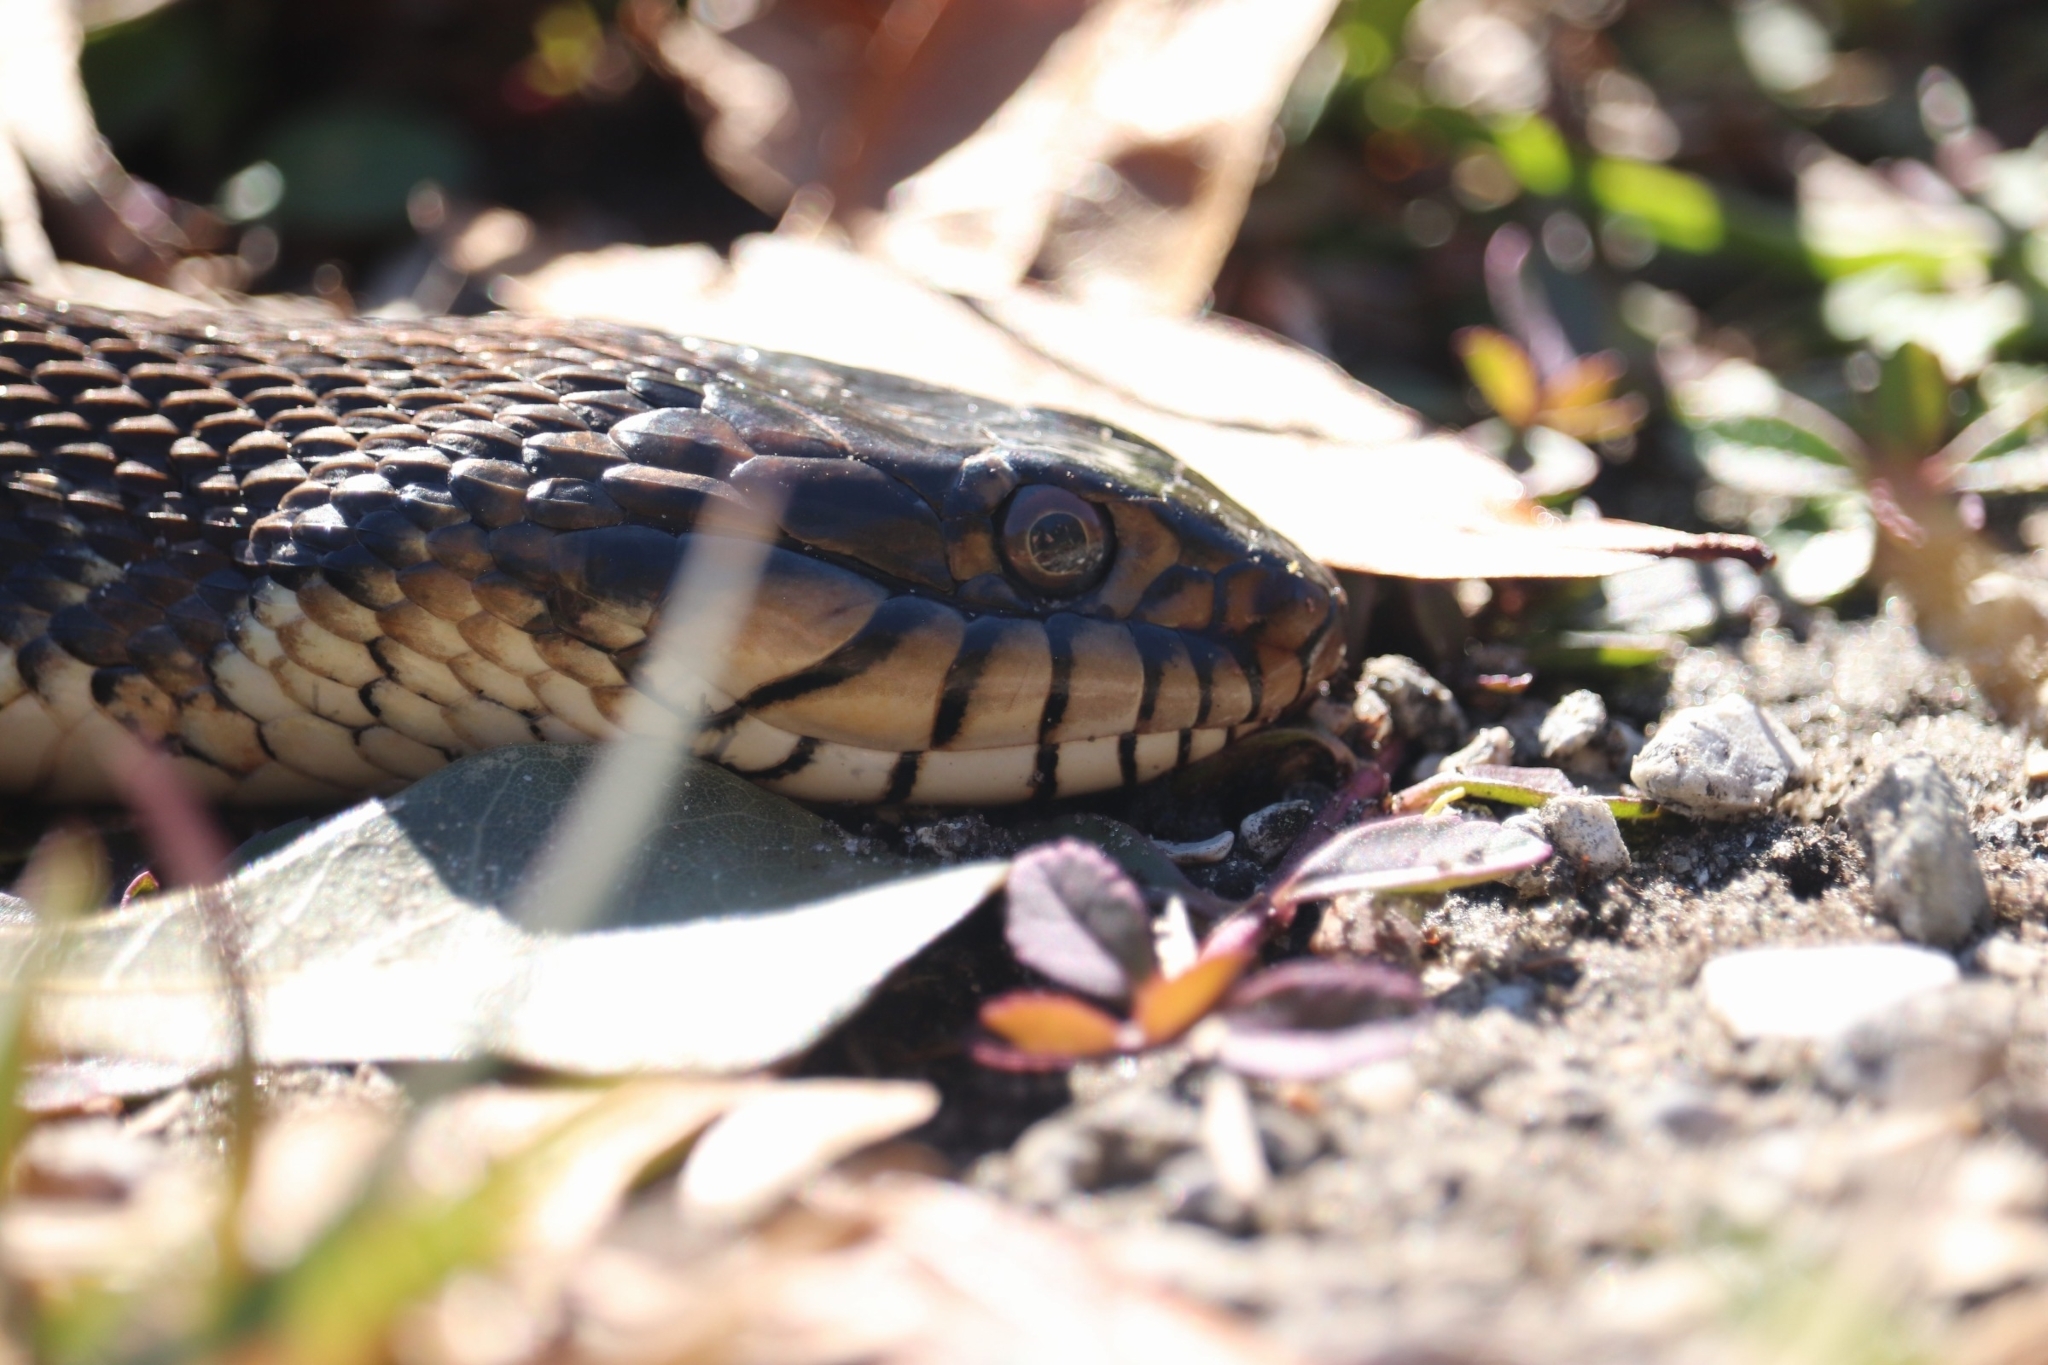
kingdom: Animalia
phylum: Chordata
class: Squamata
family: Colubridae
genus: Nerodia
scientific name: Nerodia fasciata
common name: Southern water snake
